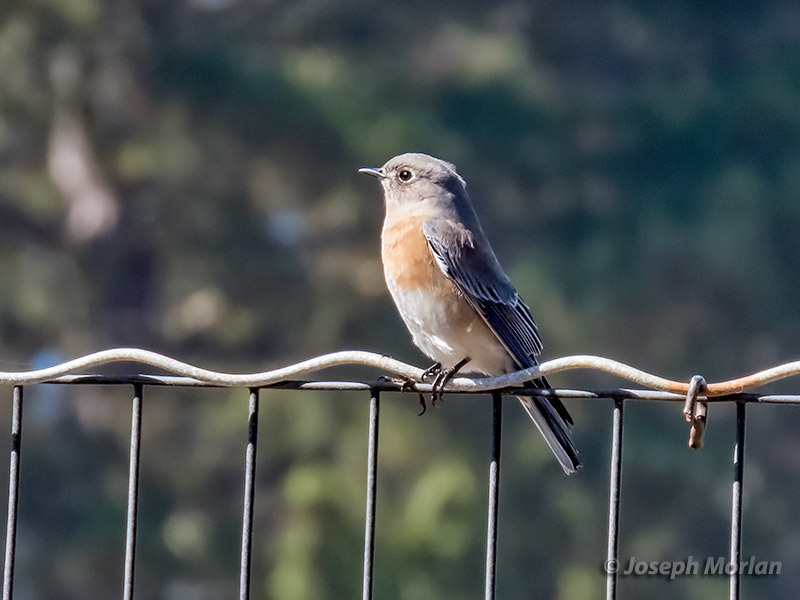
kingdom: Animalia
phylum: Chordata
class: Aves
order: Passeriformes
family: Turdidae
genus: Sialia
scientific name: Sialia mexicana
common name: Western bluebird
